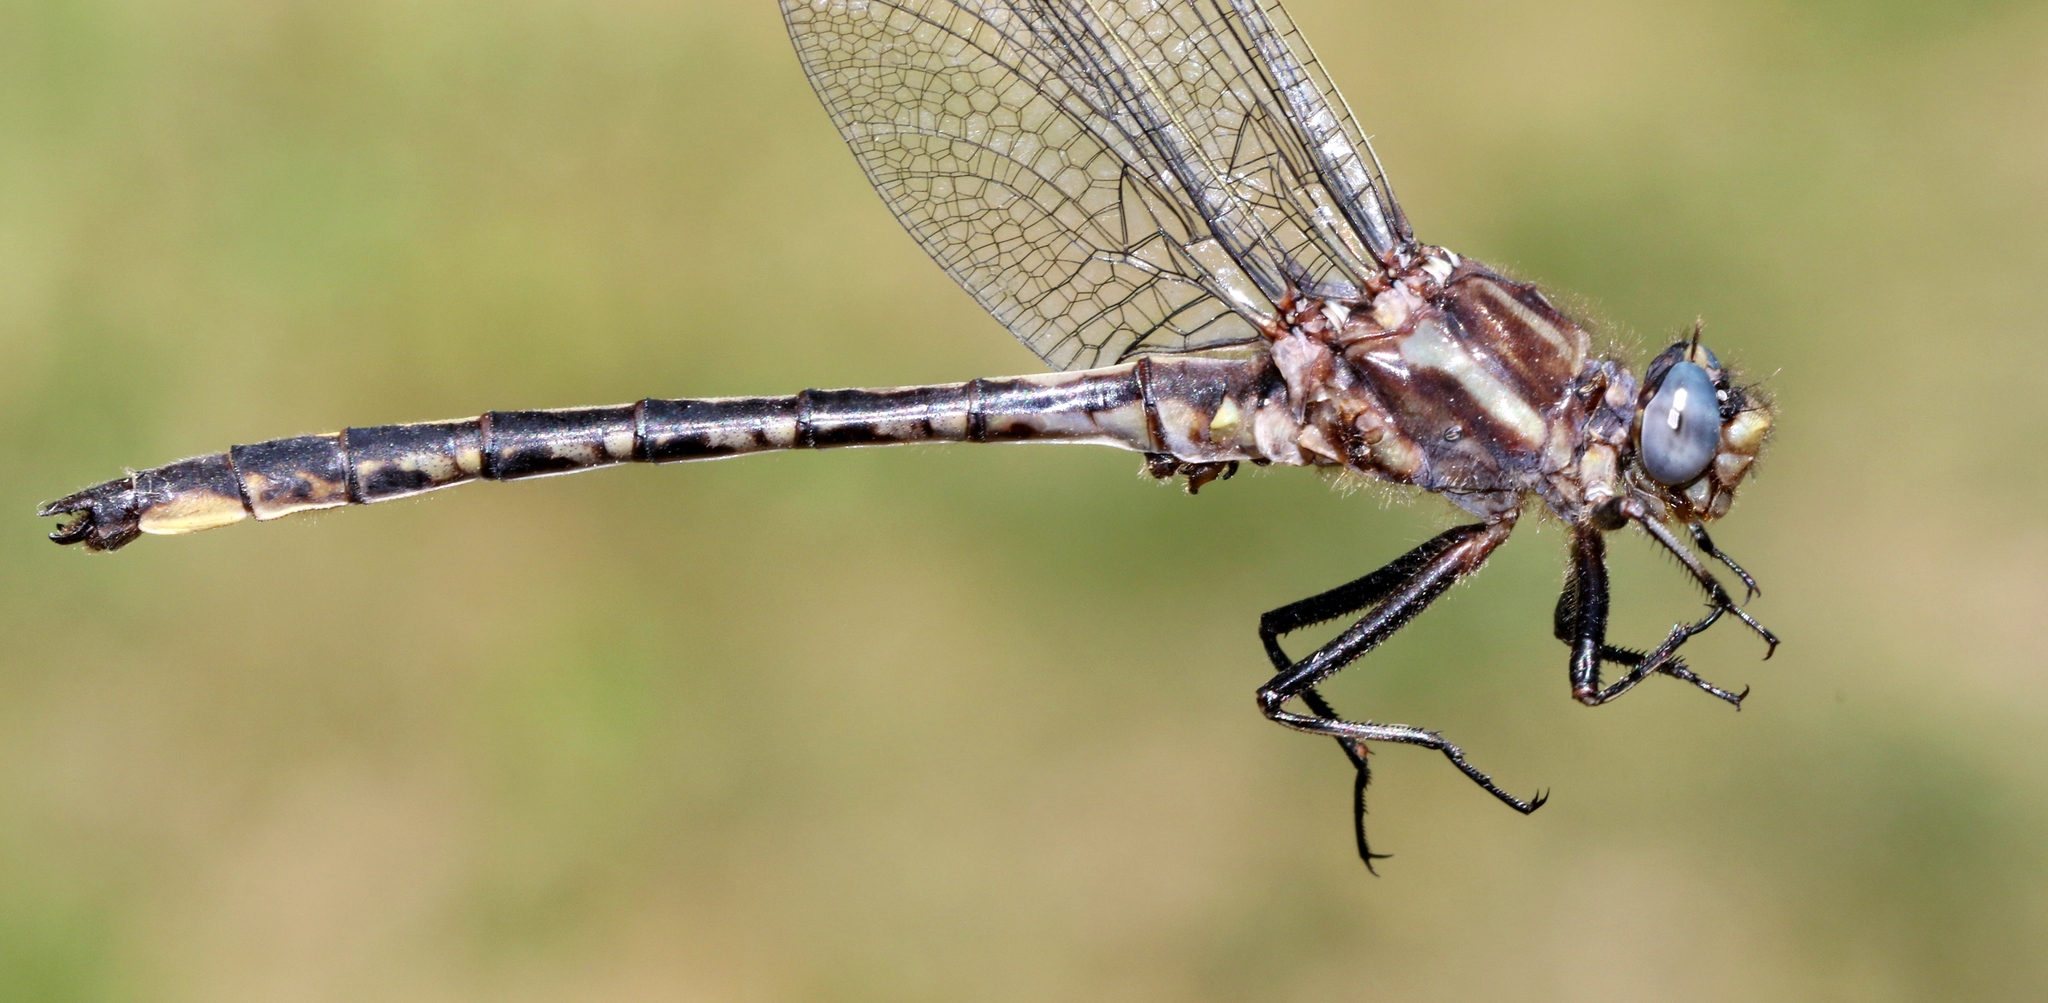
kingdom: Animalia
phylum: Arthropoda
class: Insecta
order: Odonata
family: Gomphidae
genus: Phanogomphus
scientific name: Phanogomphus spicatus
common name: Dusky clubtail
